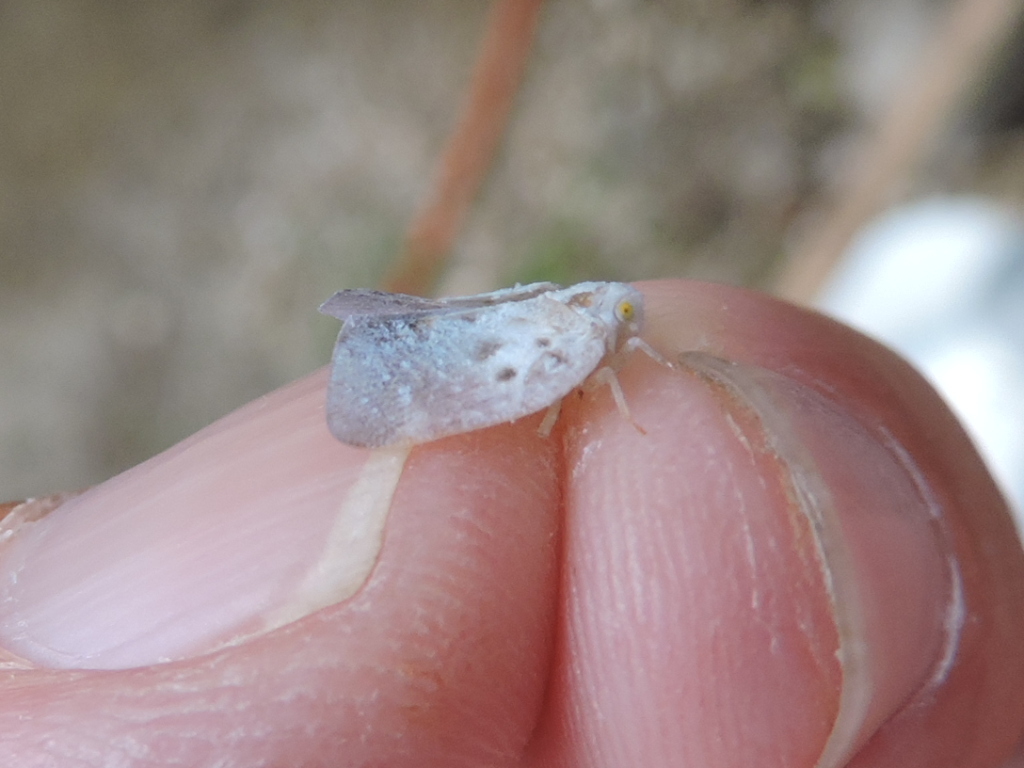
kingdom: Animalia
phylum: Arthropoda
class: Insecta
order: Hemiptera
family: Flatidae
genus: Metcalfa
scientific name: Metcalfa pruinosa
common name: Citrus flatid planthopper
